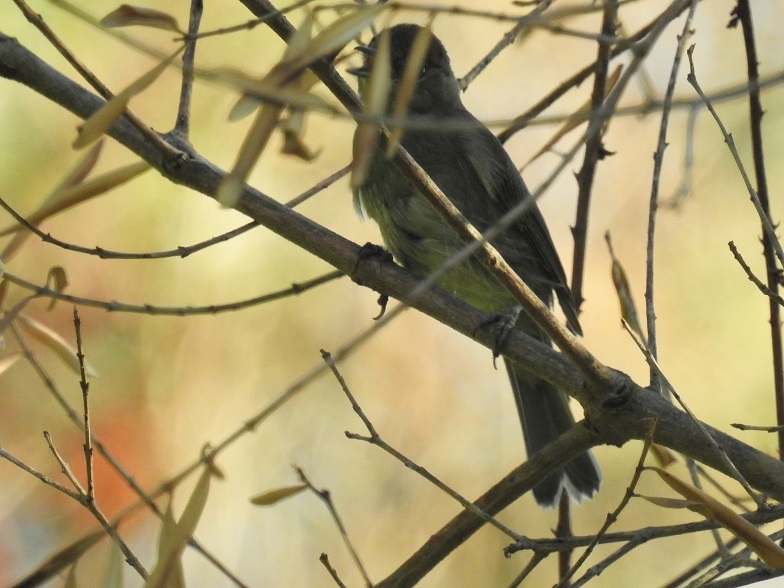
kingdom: Animalia
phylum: Chordata
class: Aves
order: Passeriformes
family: Sylviidae
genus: Sylvia
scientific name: Sylvia atricapilla
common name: Eurasian blackcap
